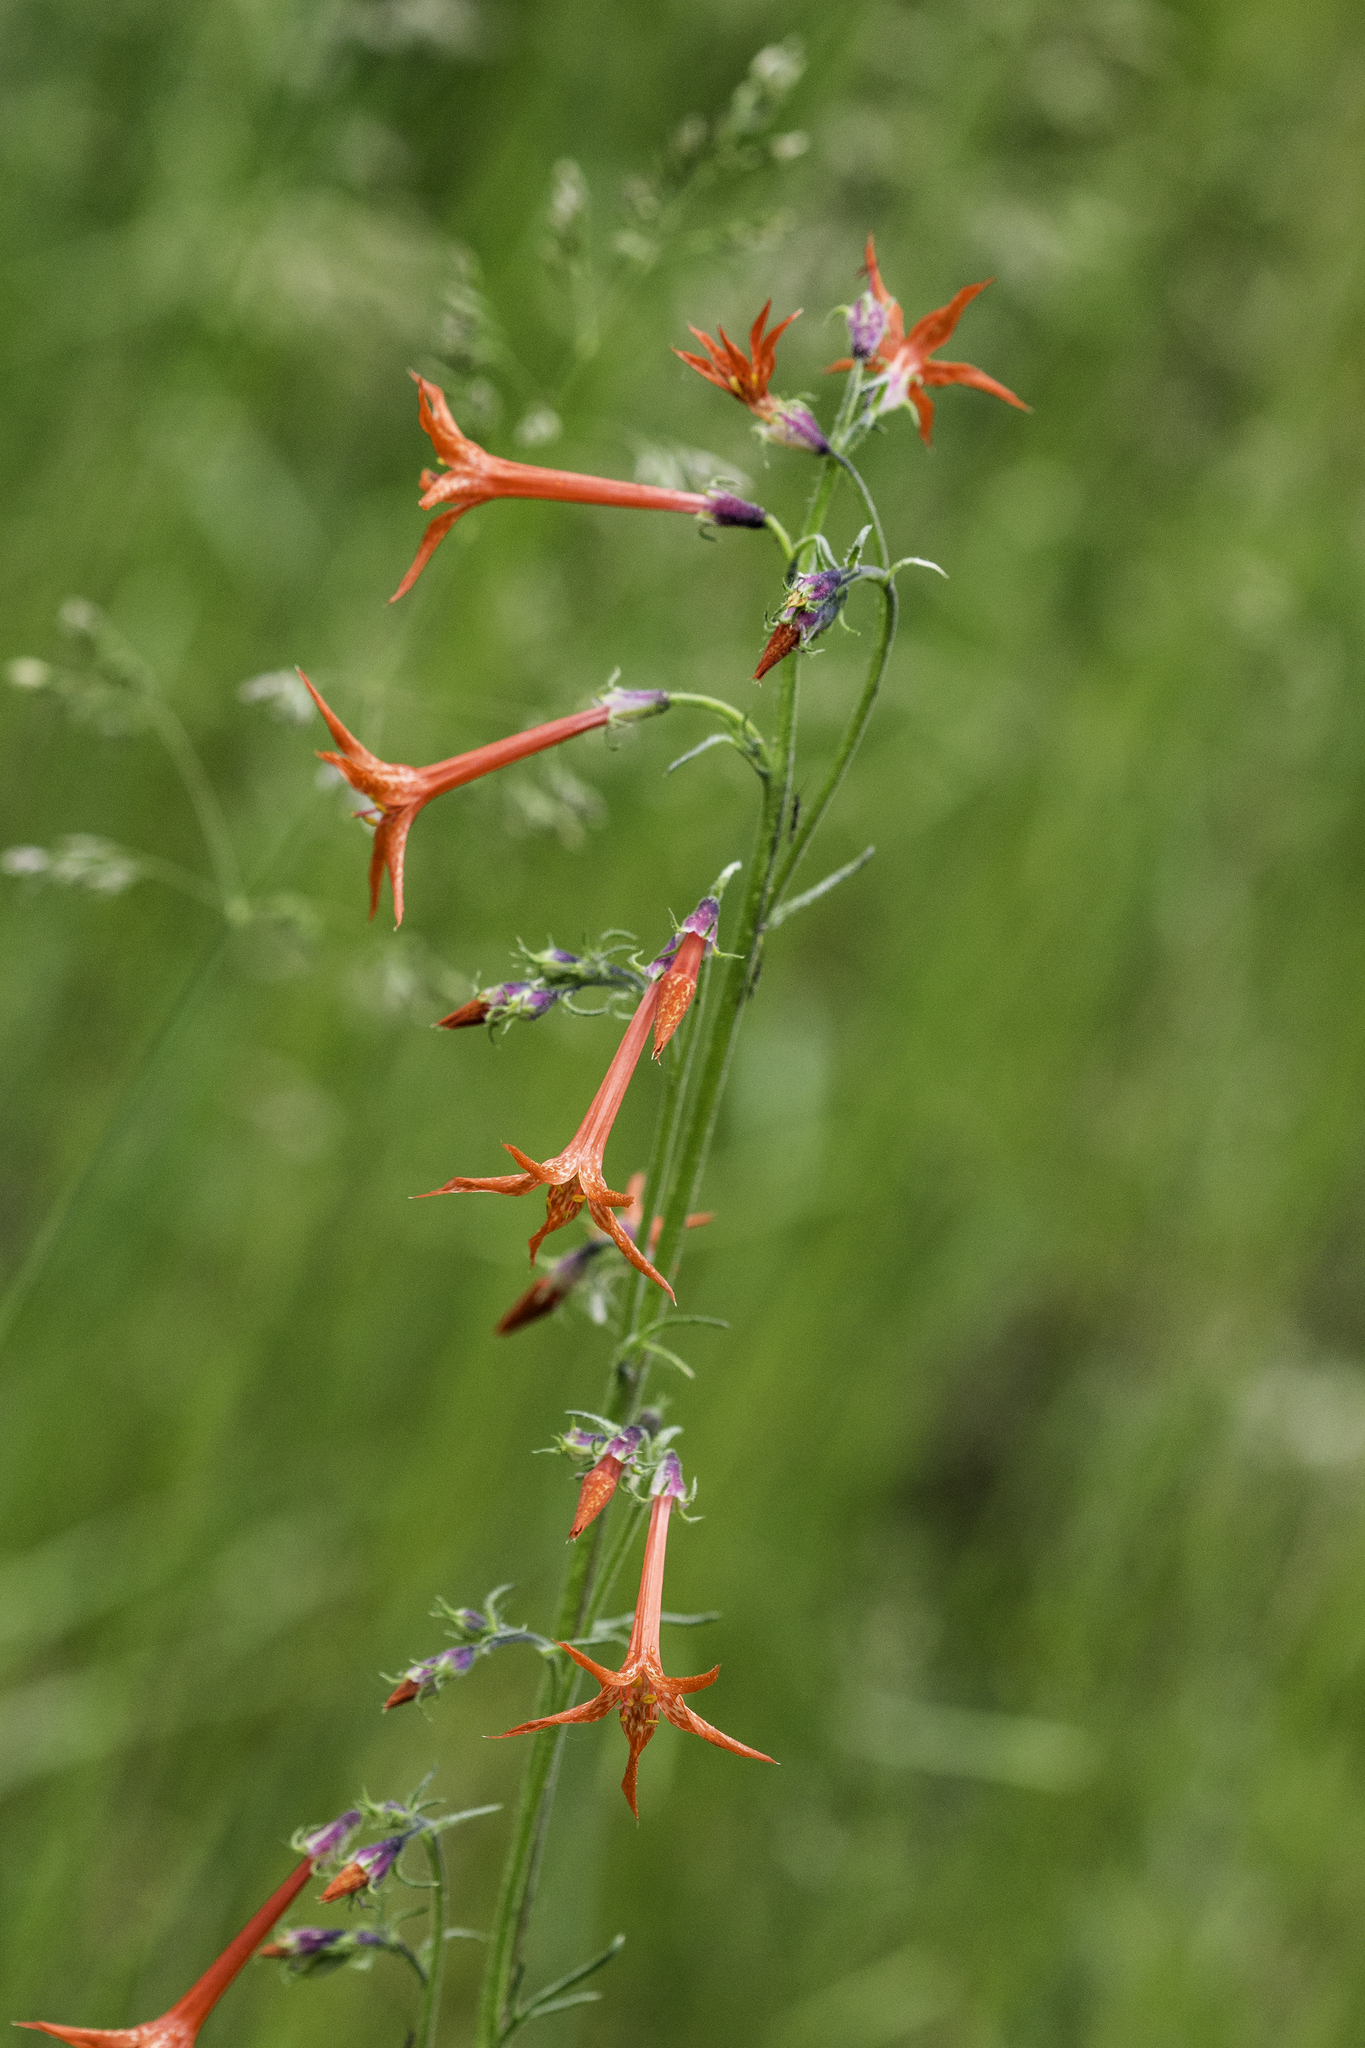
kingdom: Plantae
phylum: Tracheophyta
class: Magnoliopsida
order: Ericales
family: Polemoniaceae
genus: Ipomopsis
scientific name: Ipomopsis aggregata
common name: Scarlet gilia
